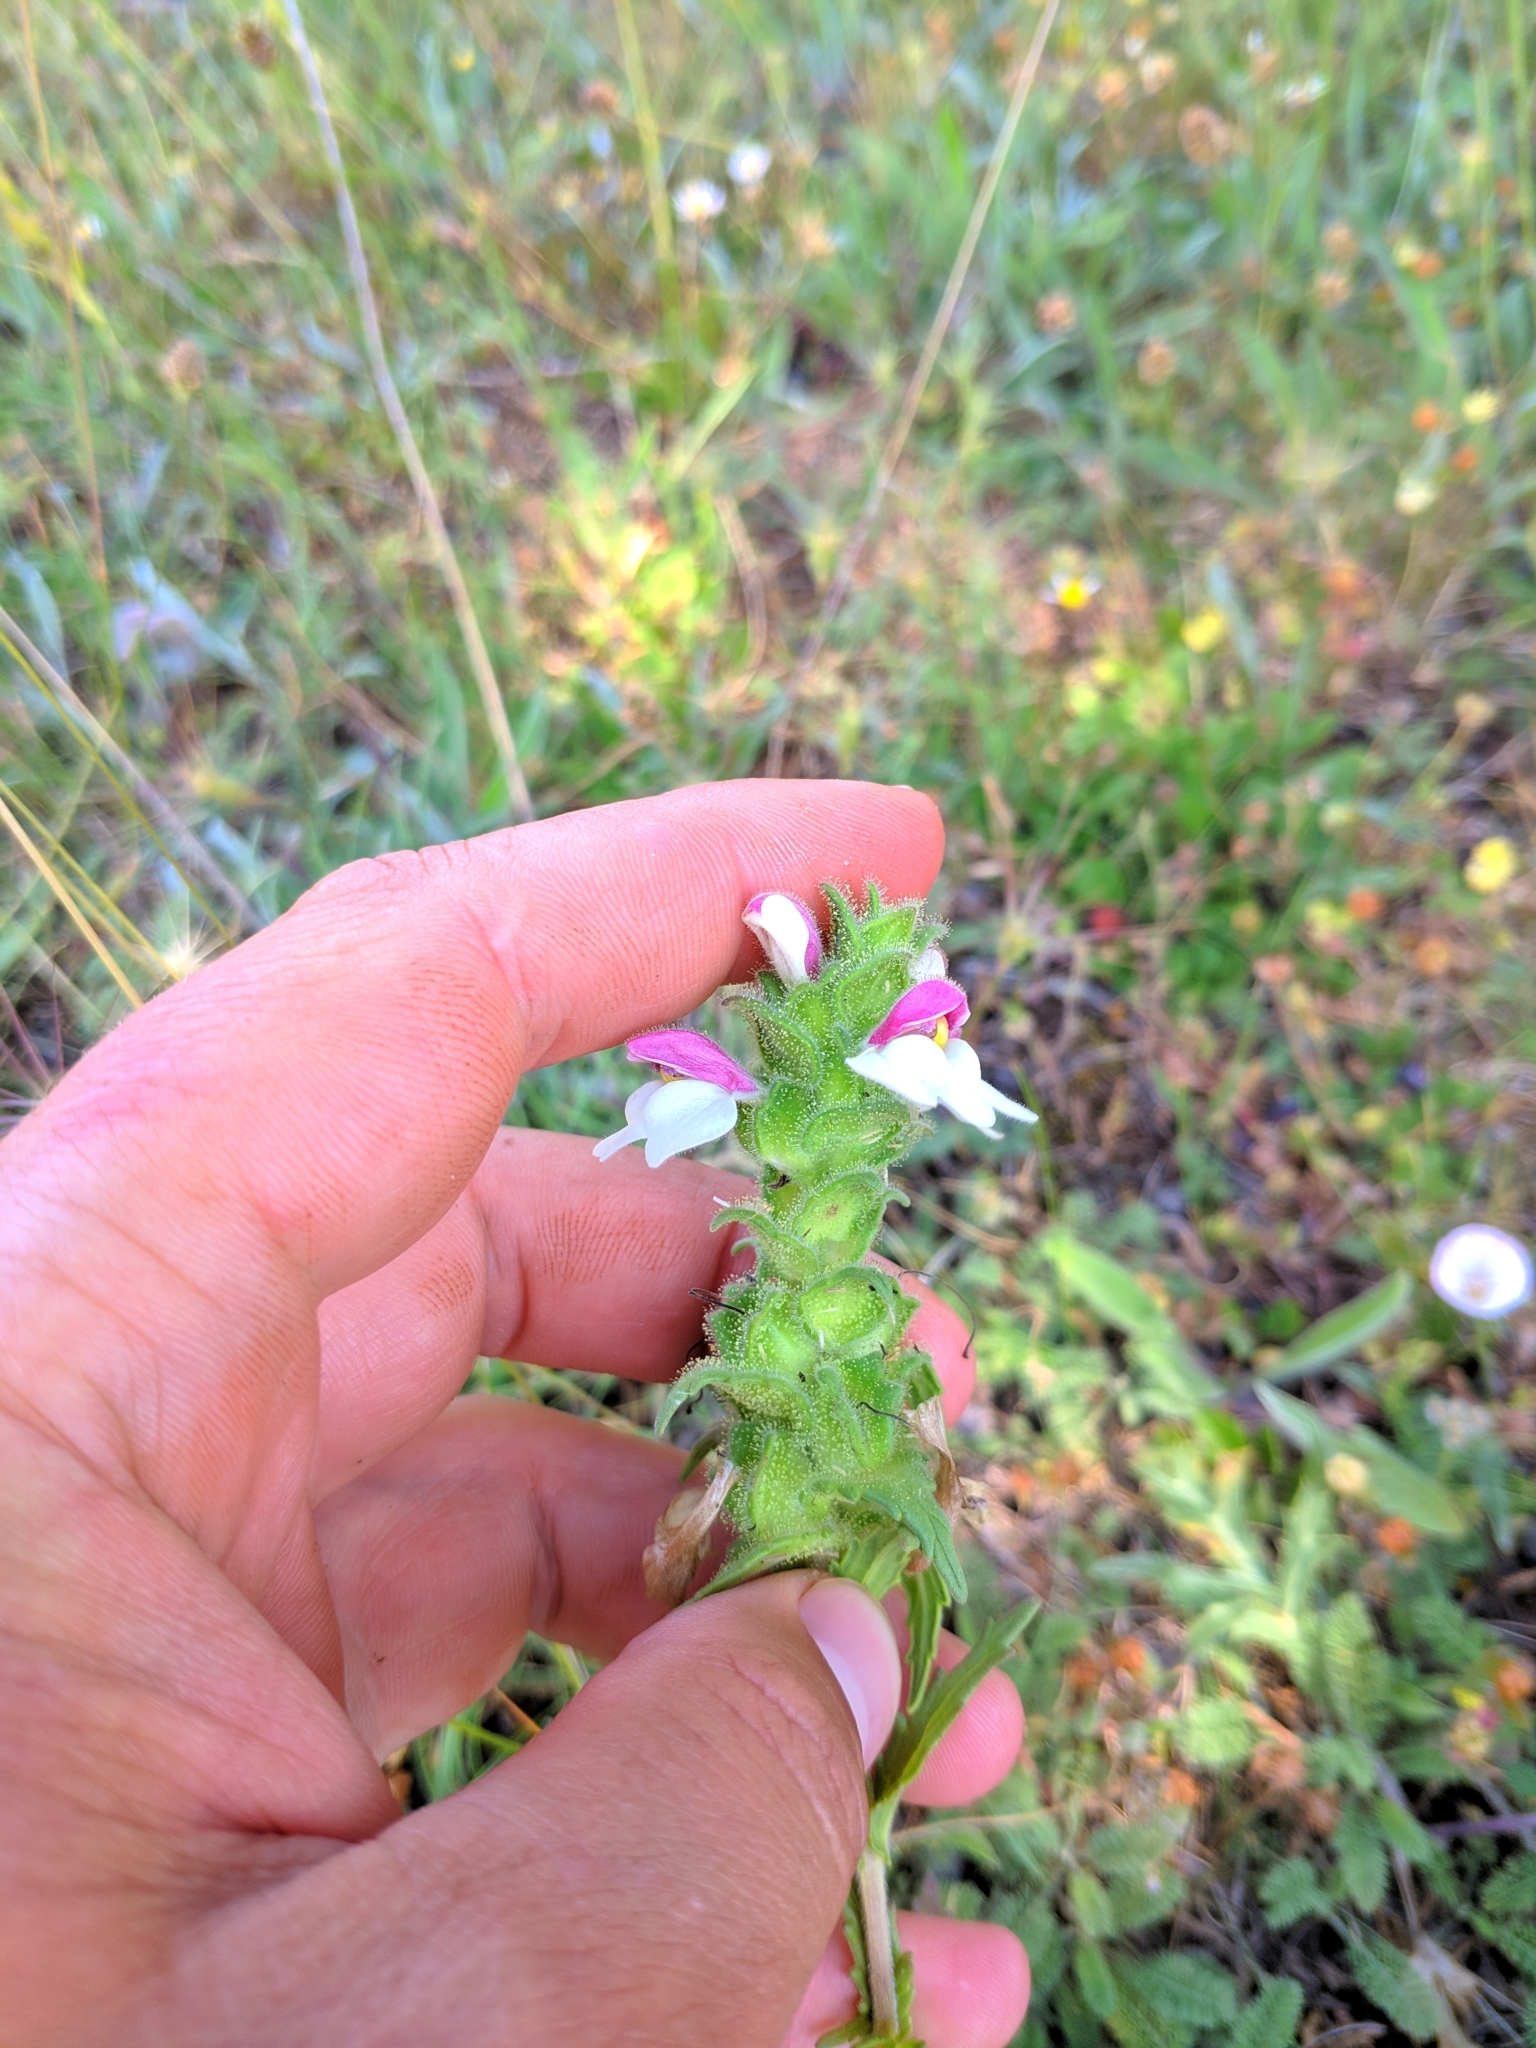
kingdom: Plantae
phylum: Tracheophyta
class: Magnoliopsida
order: Lamiales
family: Orobanchaceae
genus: Bellardia
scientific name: Bellardia trixago
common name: Mediterranean lineseed
